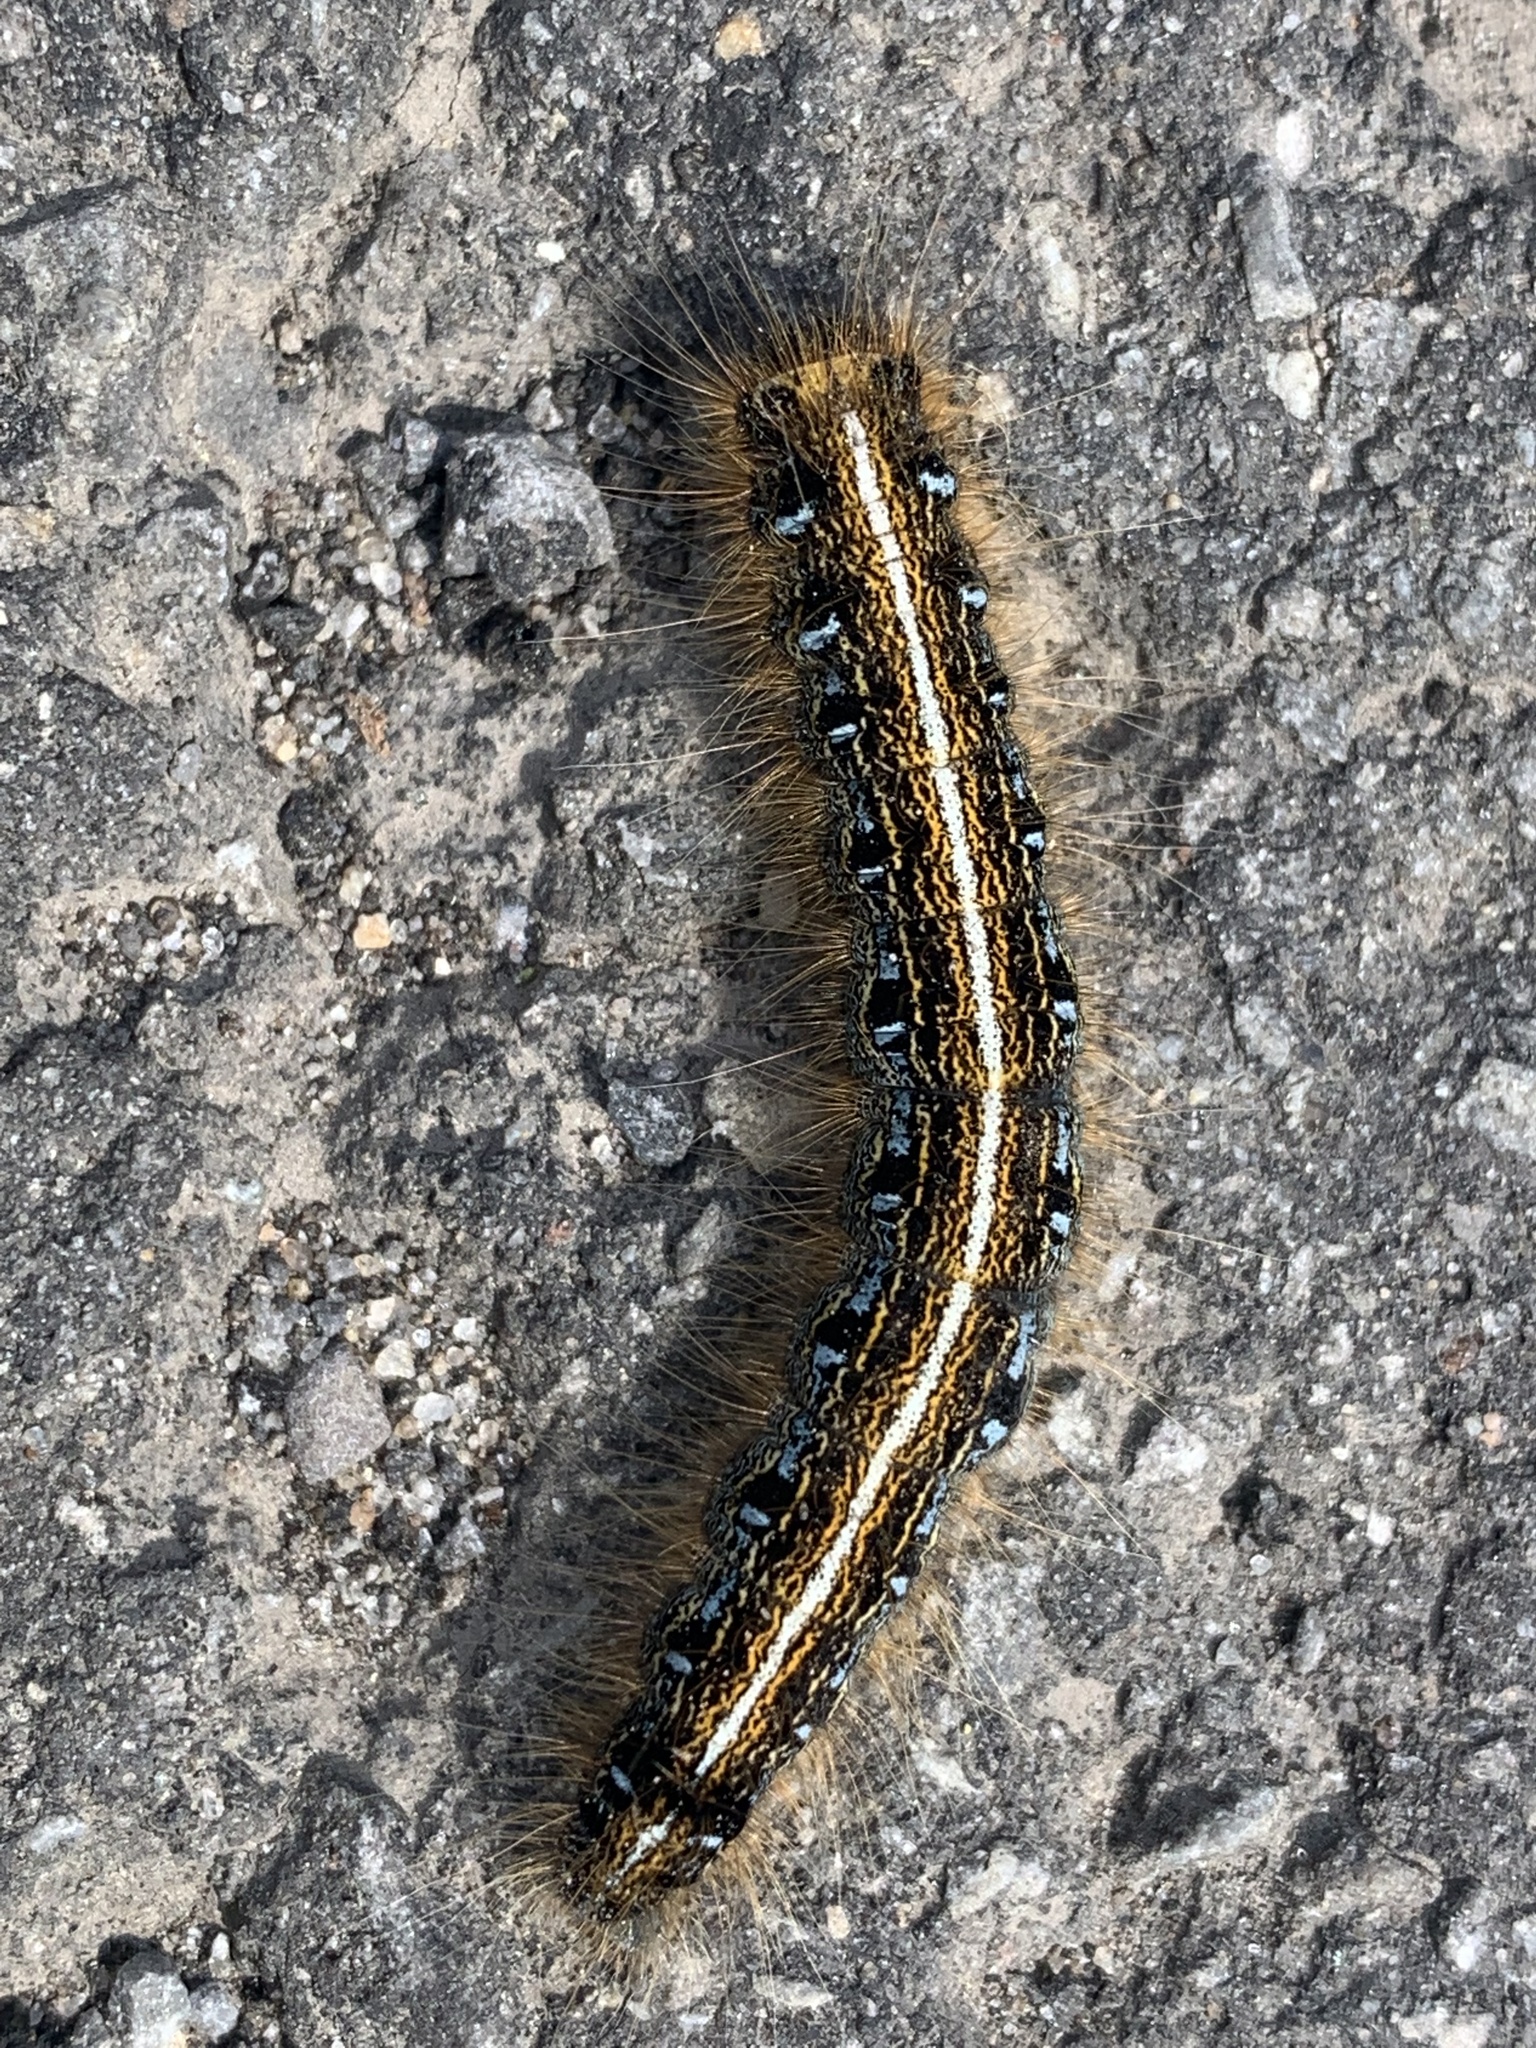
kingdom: Animalia
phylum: Arthropoda
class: Insecta
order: Lepidoptera
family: Lasiocampidae
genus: Malacosoma
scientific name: Malacosoma americana
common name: Eastern tent caterpillar moth
